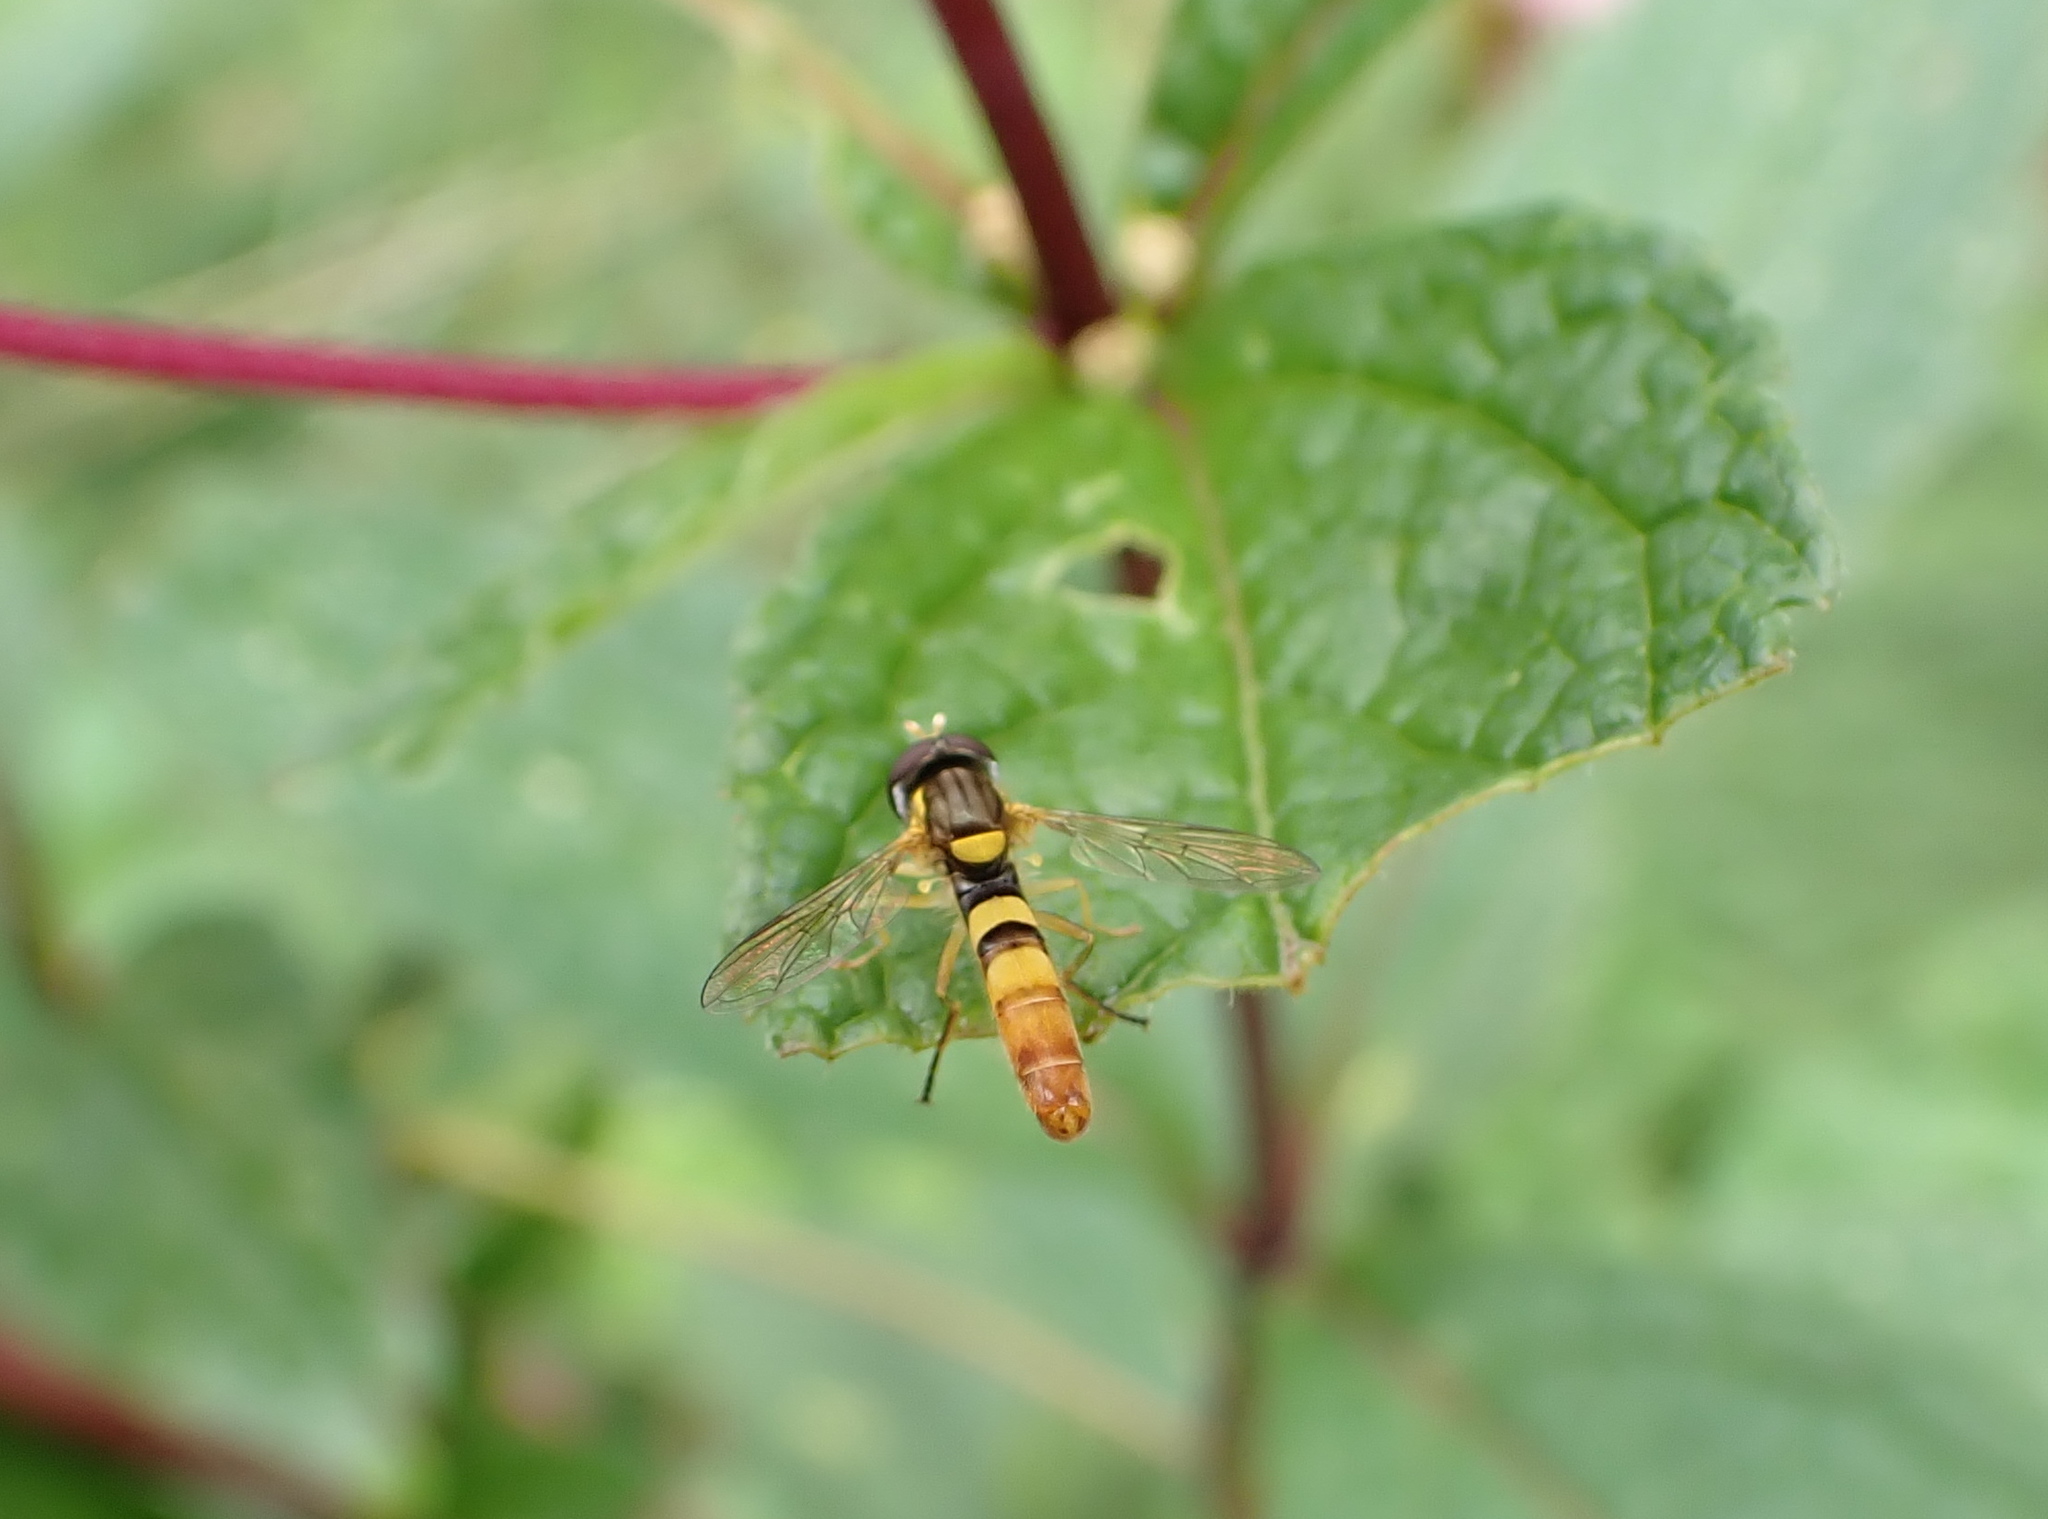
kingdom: Animalia
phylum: Arthropoda
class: Insecta
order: Diptera
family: Syrphidae
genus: Sphaerophoria
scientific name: Sphaerophoria contigua
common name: Tufted globetail
